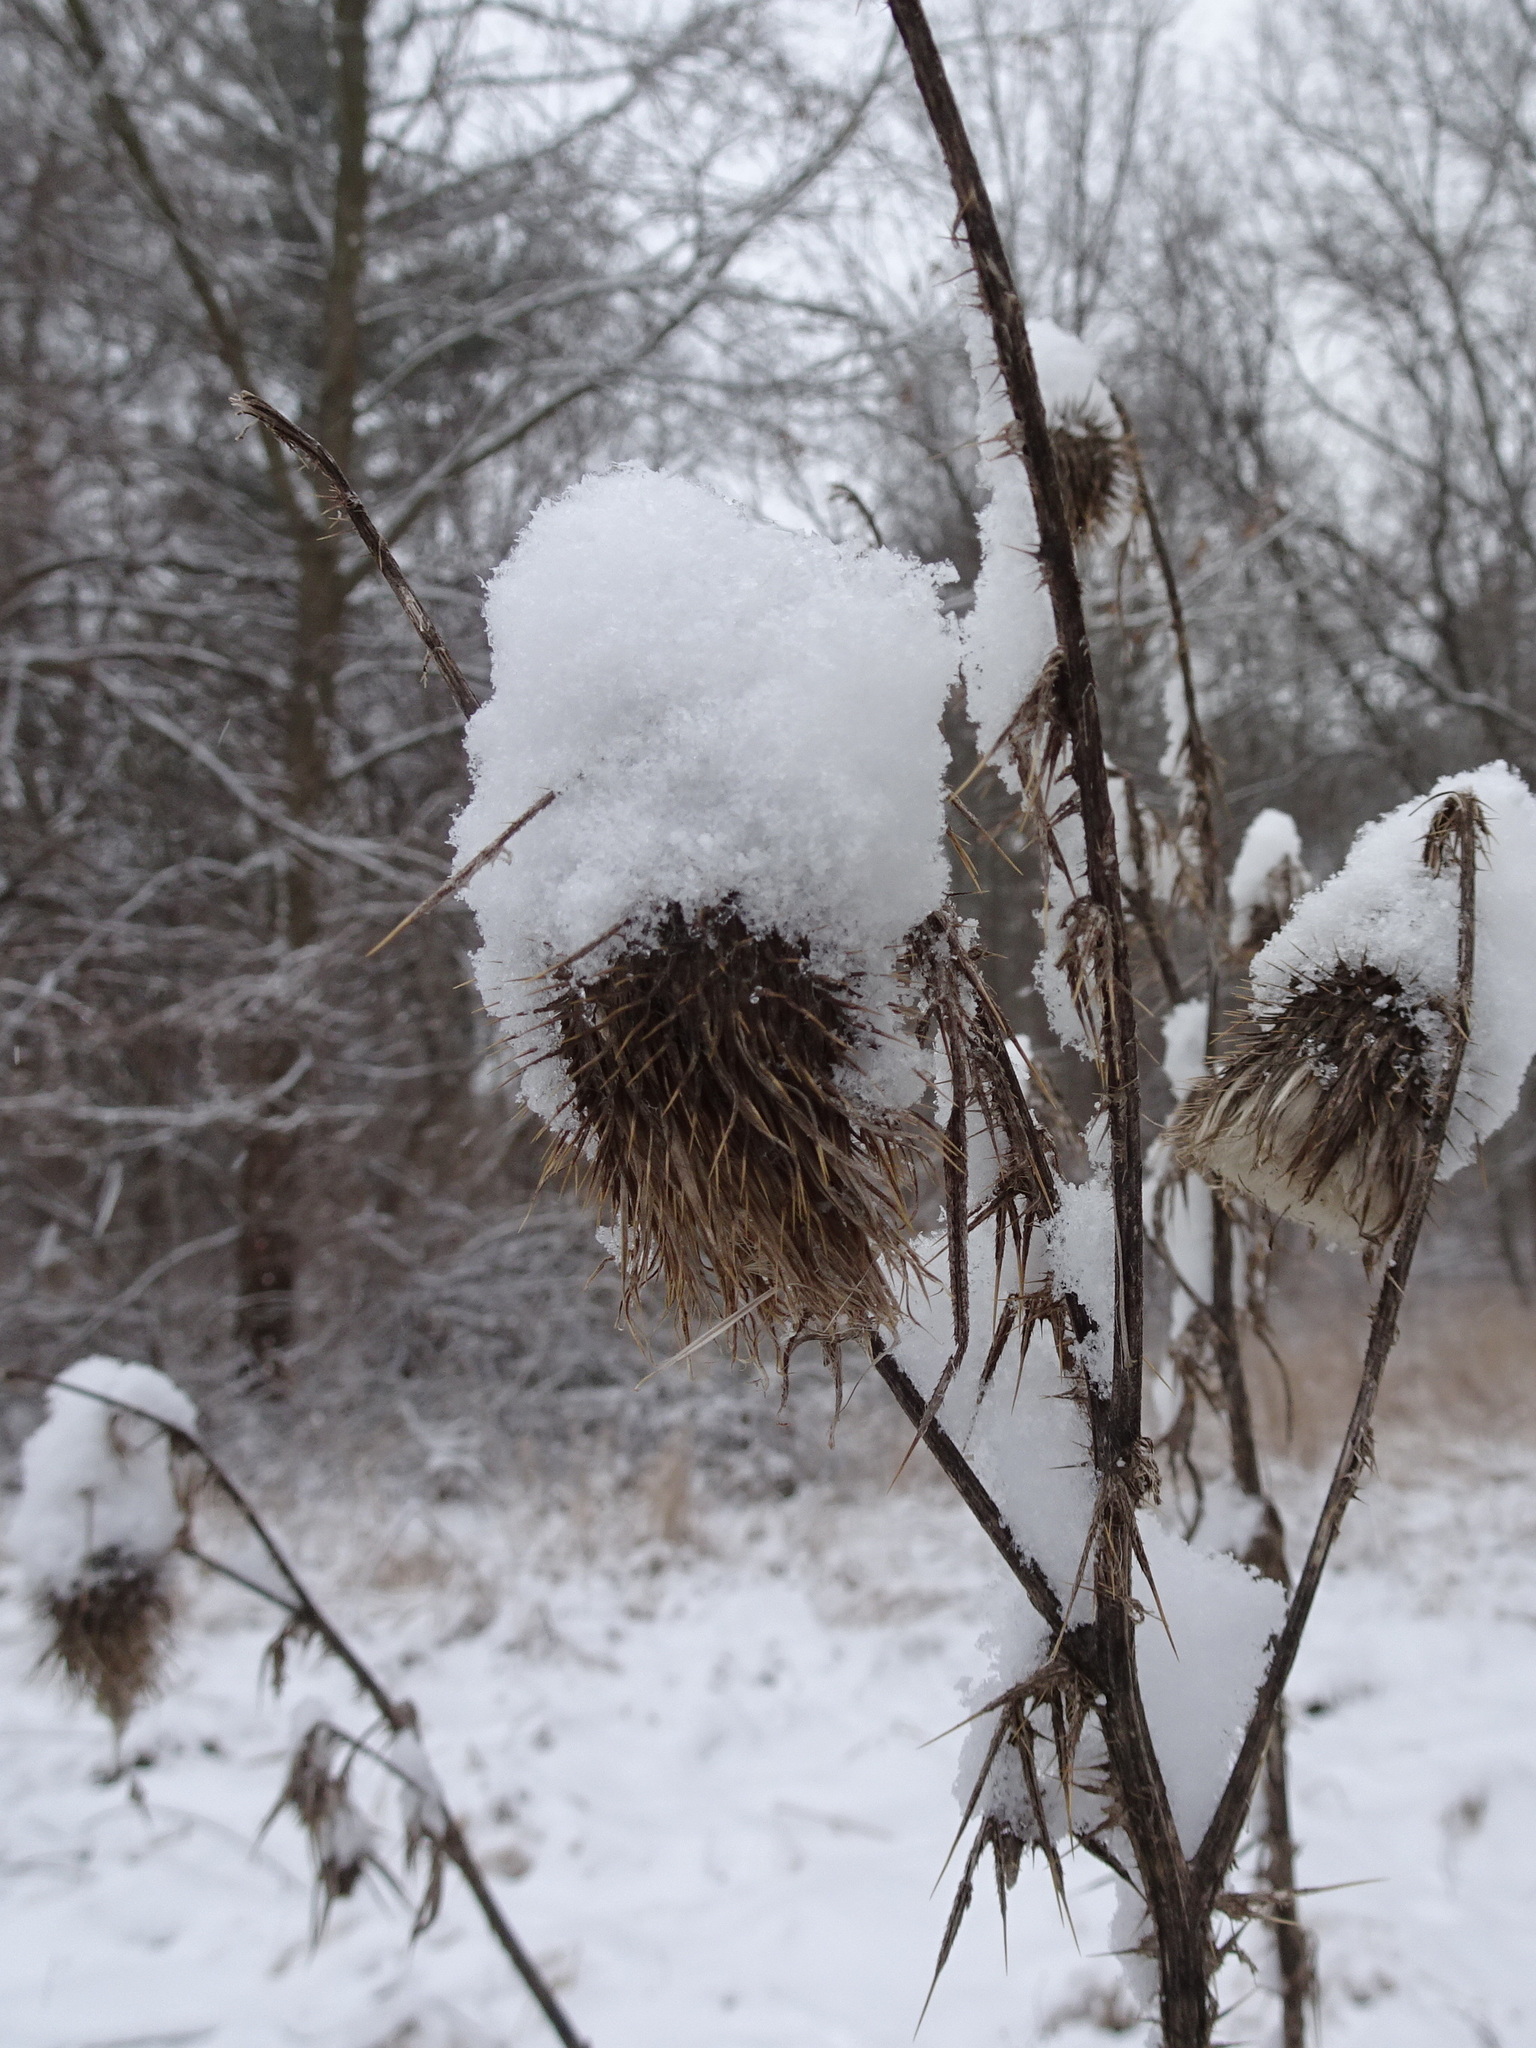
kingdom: Plantae
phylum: Tracheophyta
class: Magnoliopsida
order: Asterales
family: Asteraceae
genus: Cirsium
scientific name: Cirsium vulgare
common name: Bull thistle
